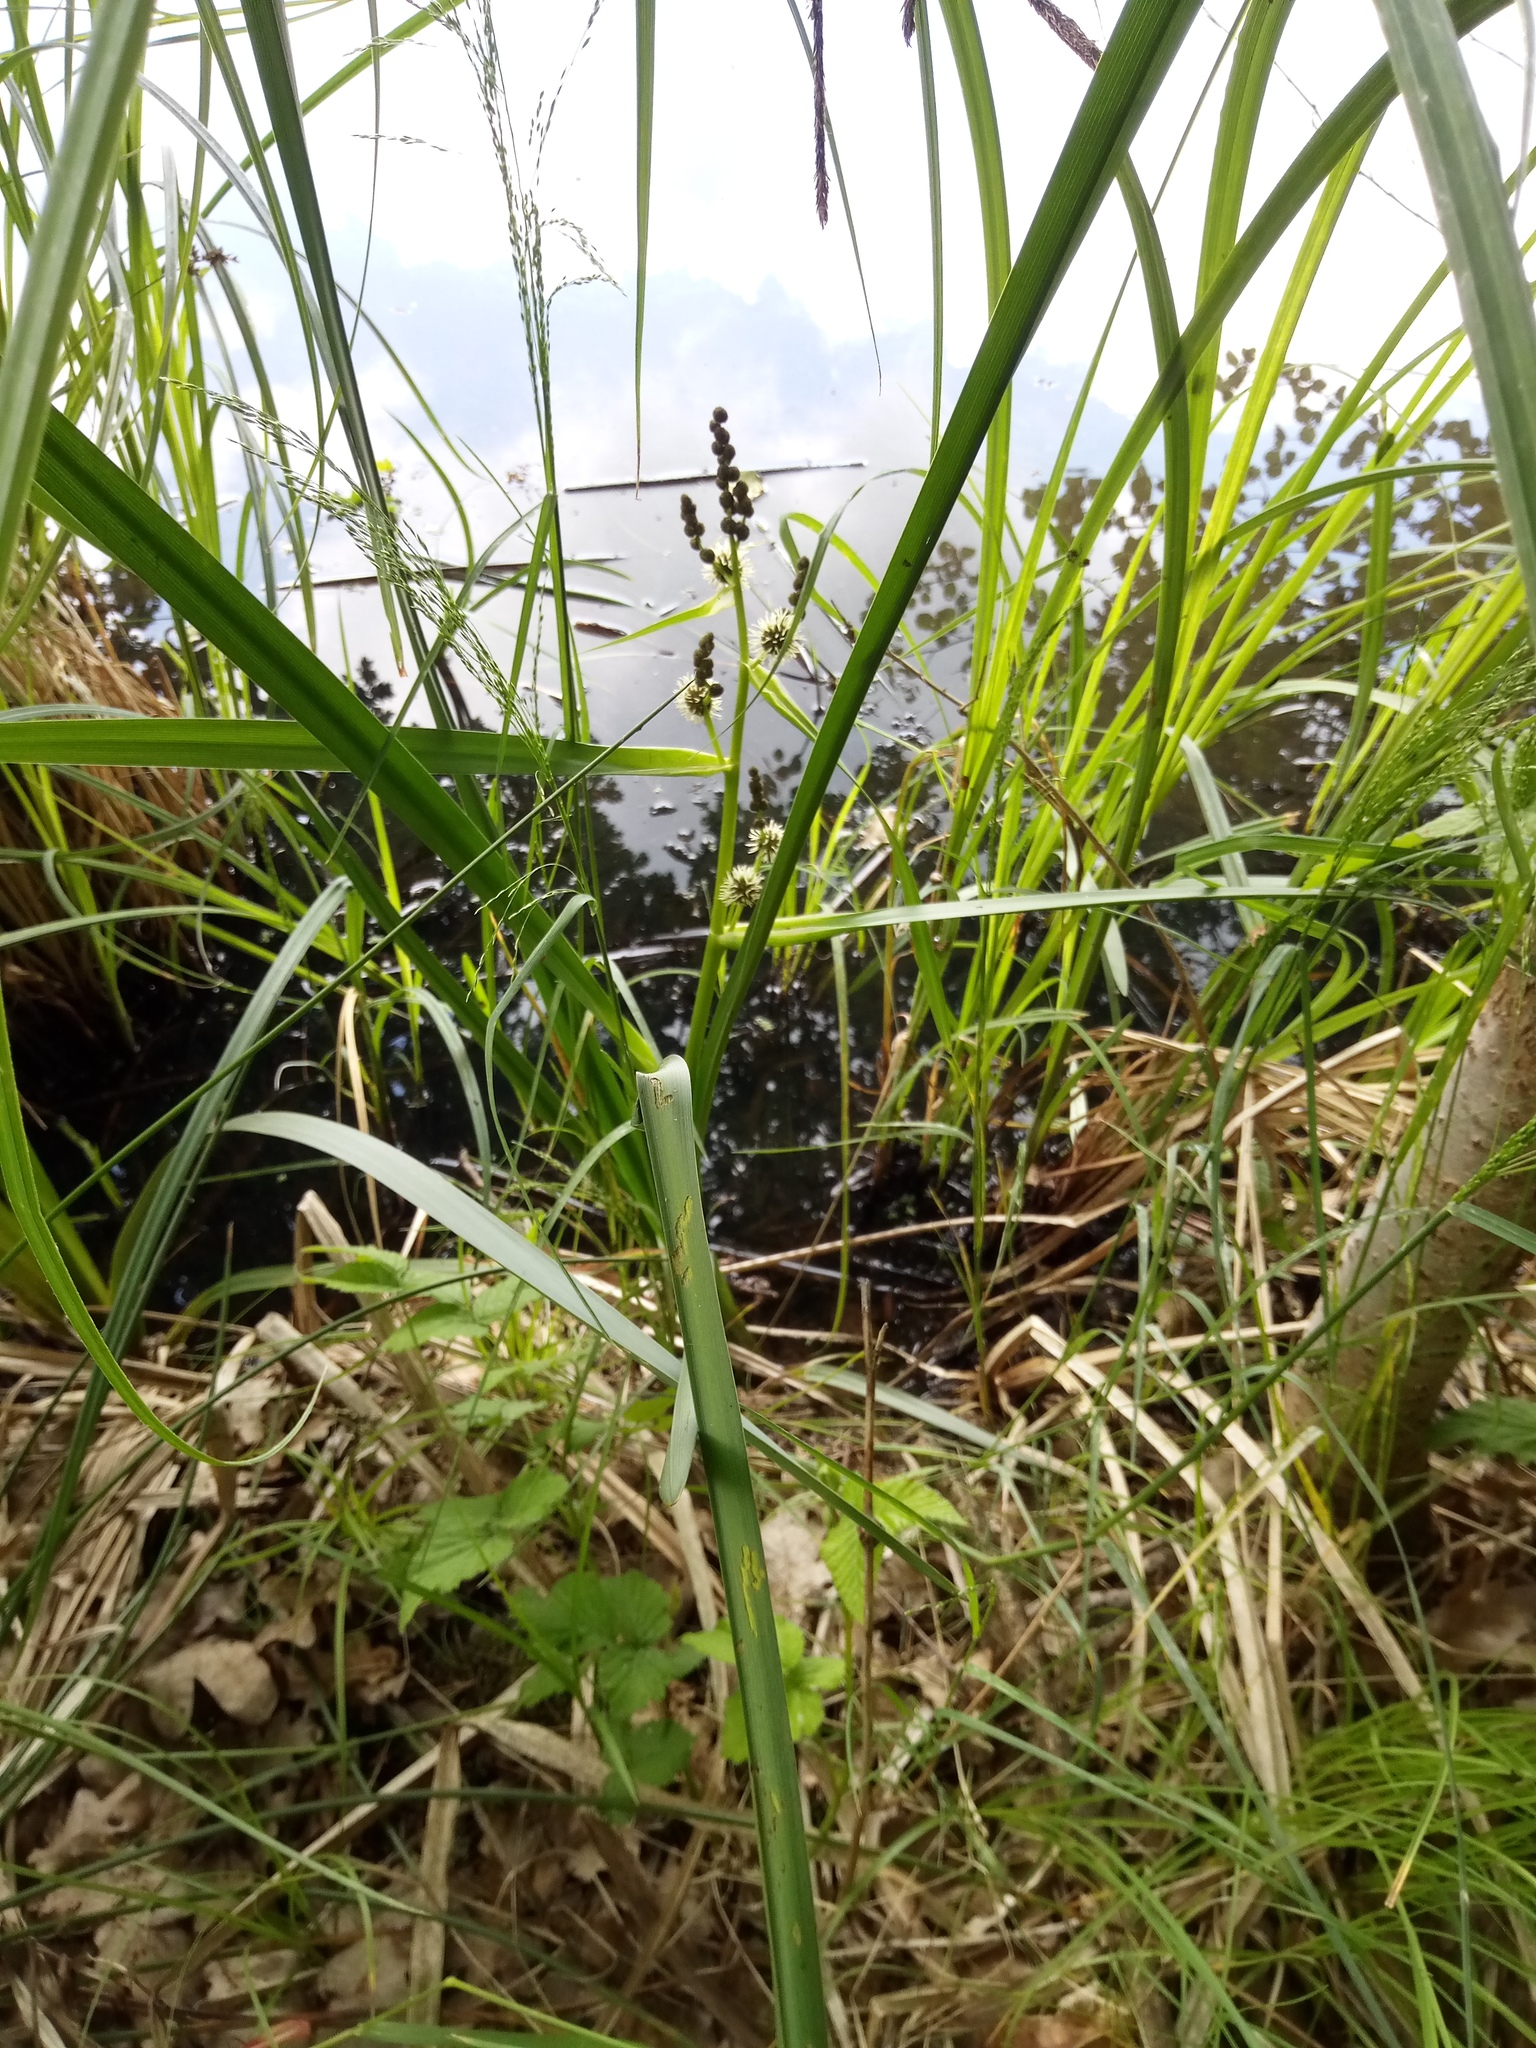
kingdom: Plantae
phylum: Tracheophyta
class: Liliopsida
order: Poales
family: Typhaceae
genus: Sparganium
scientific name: Sparganium erectum
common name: Branched bur-reed
